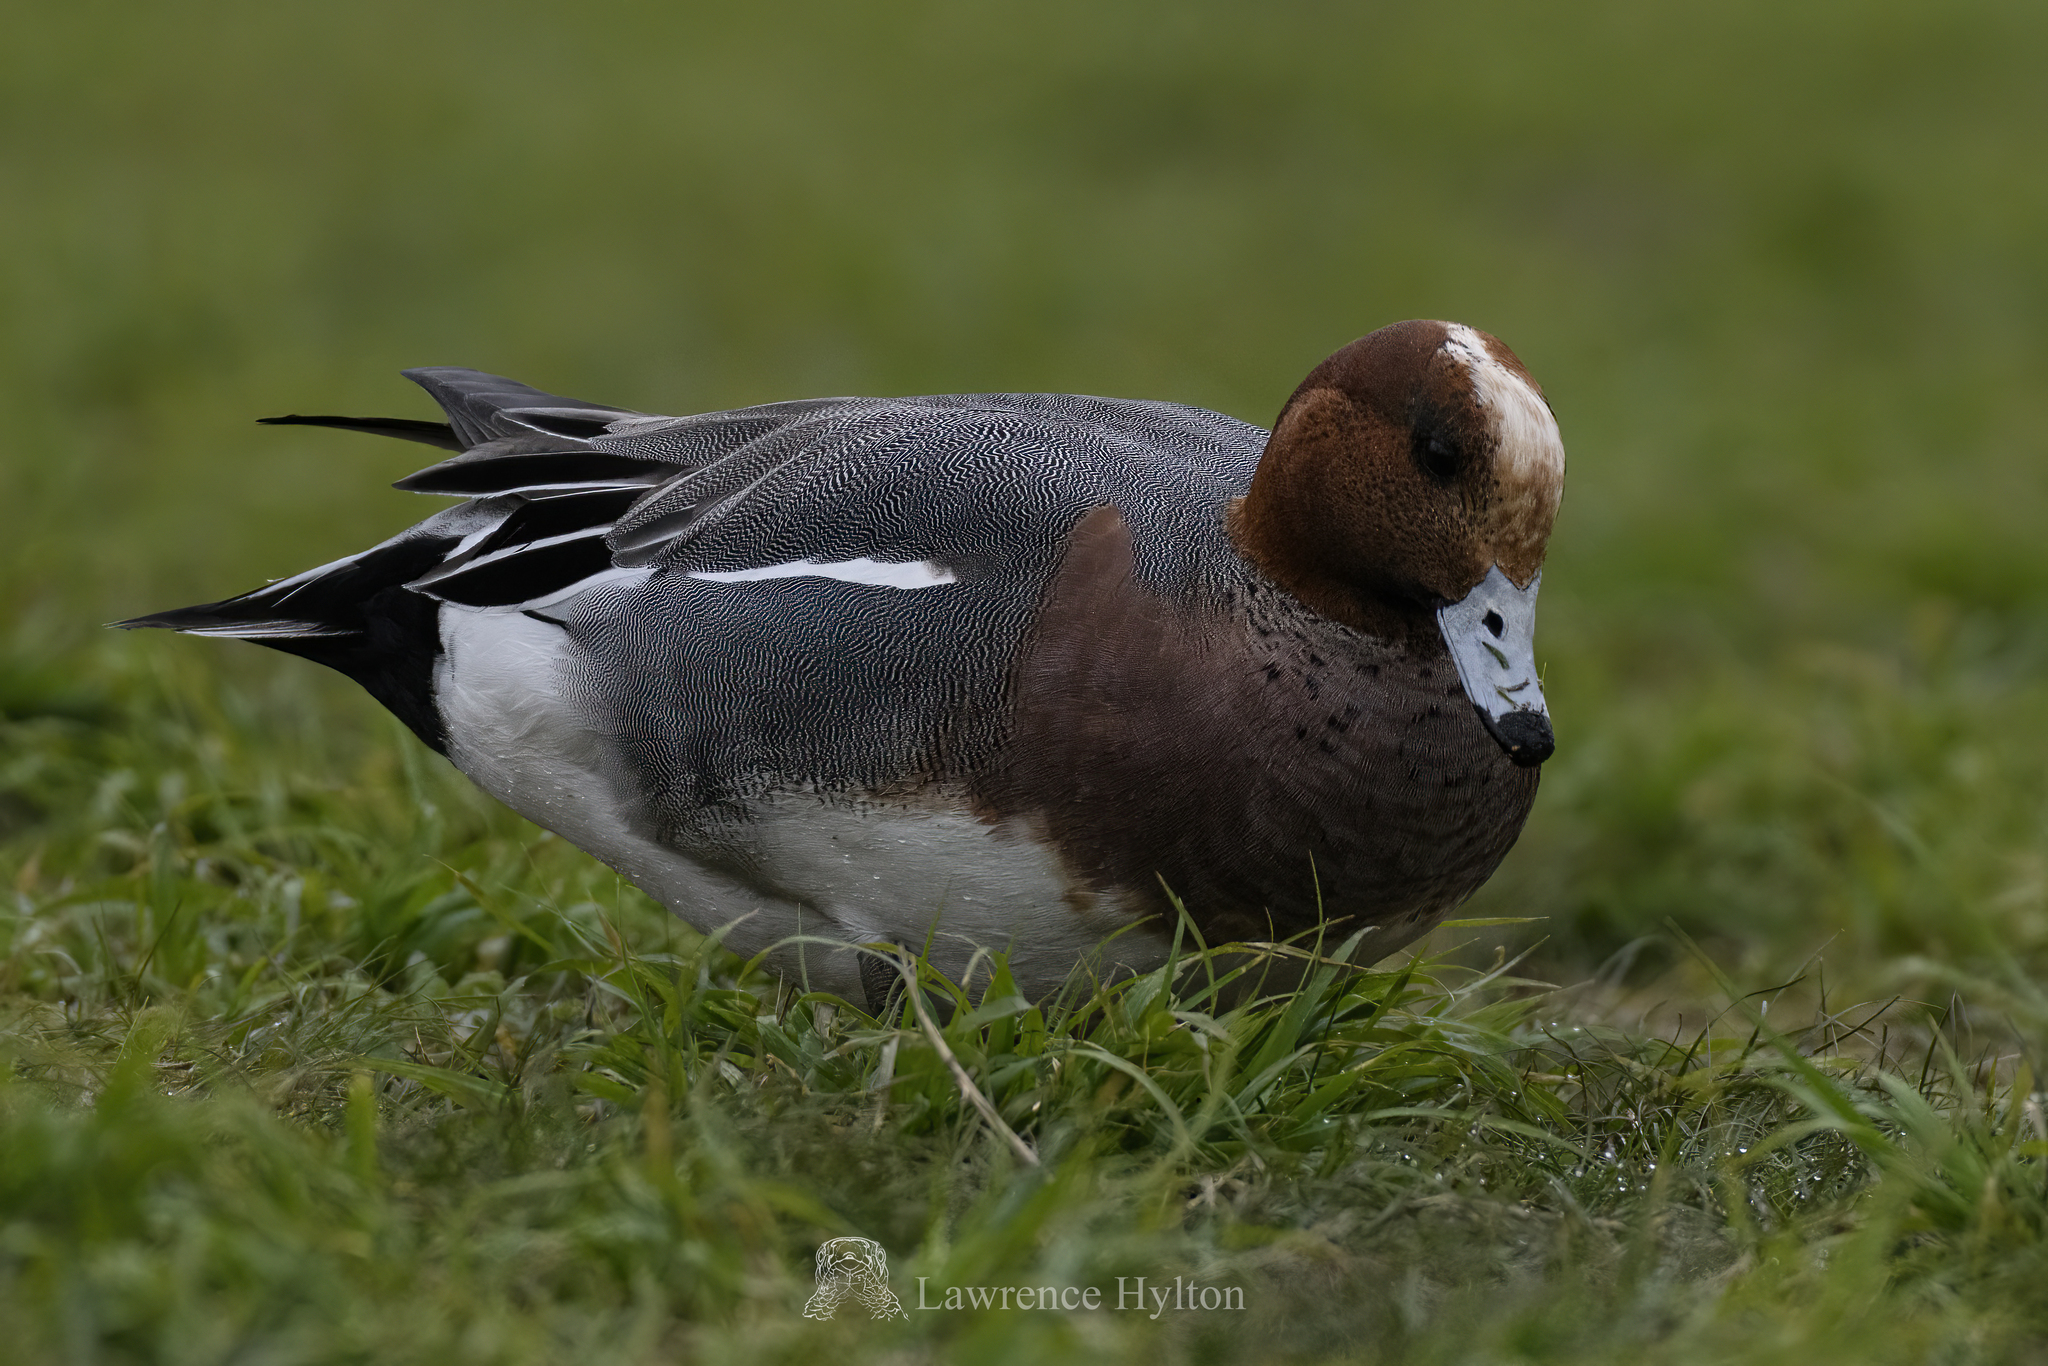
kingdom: Animalia
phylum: Chordata
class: Aves
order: Anseriformes
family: Anatidae
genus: Mareca
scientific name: Mareca penelope
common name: Eurasian wigeon
